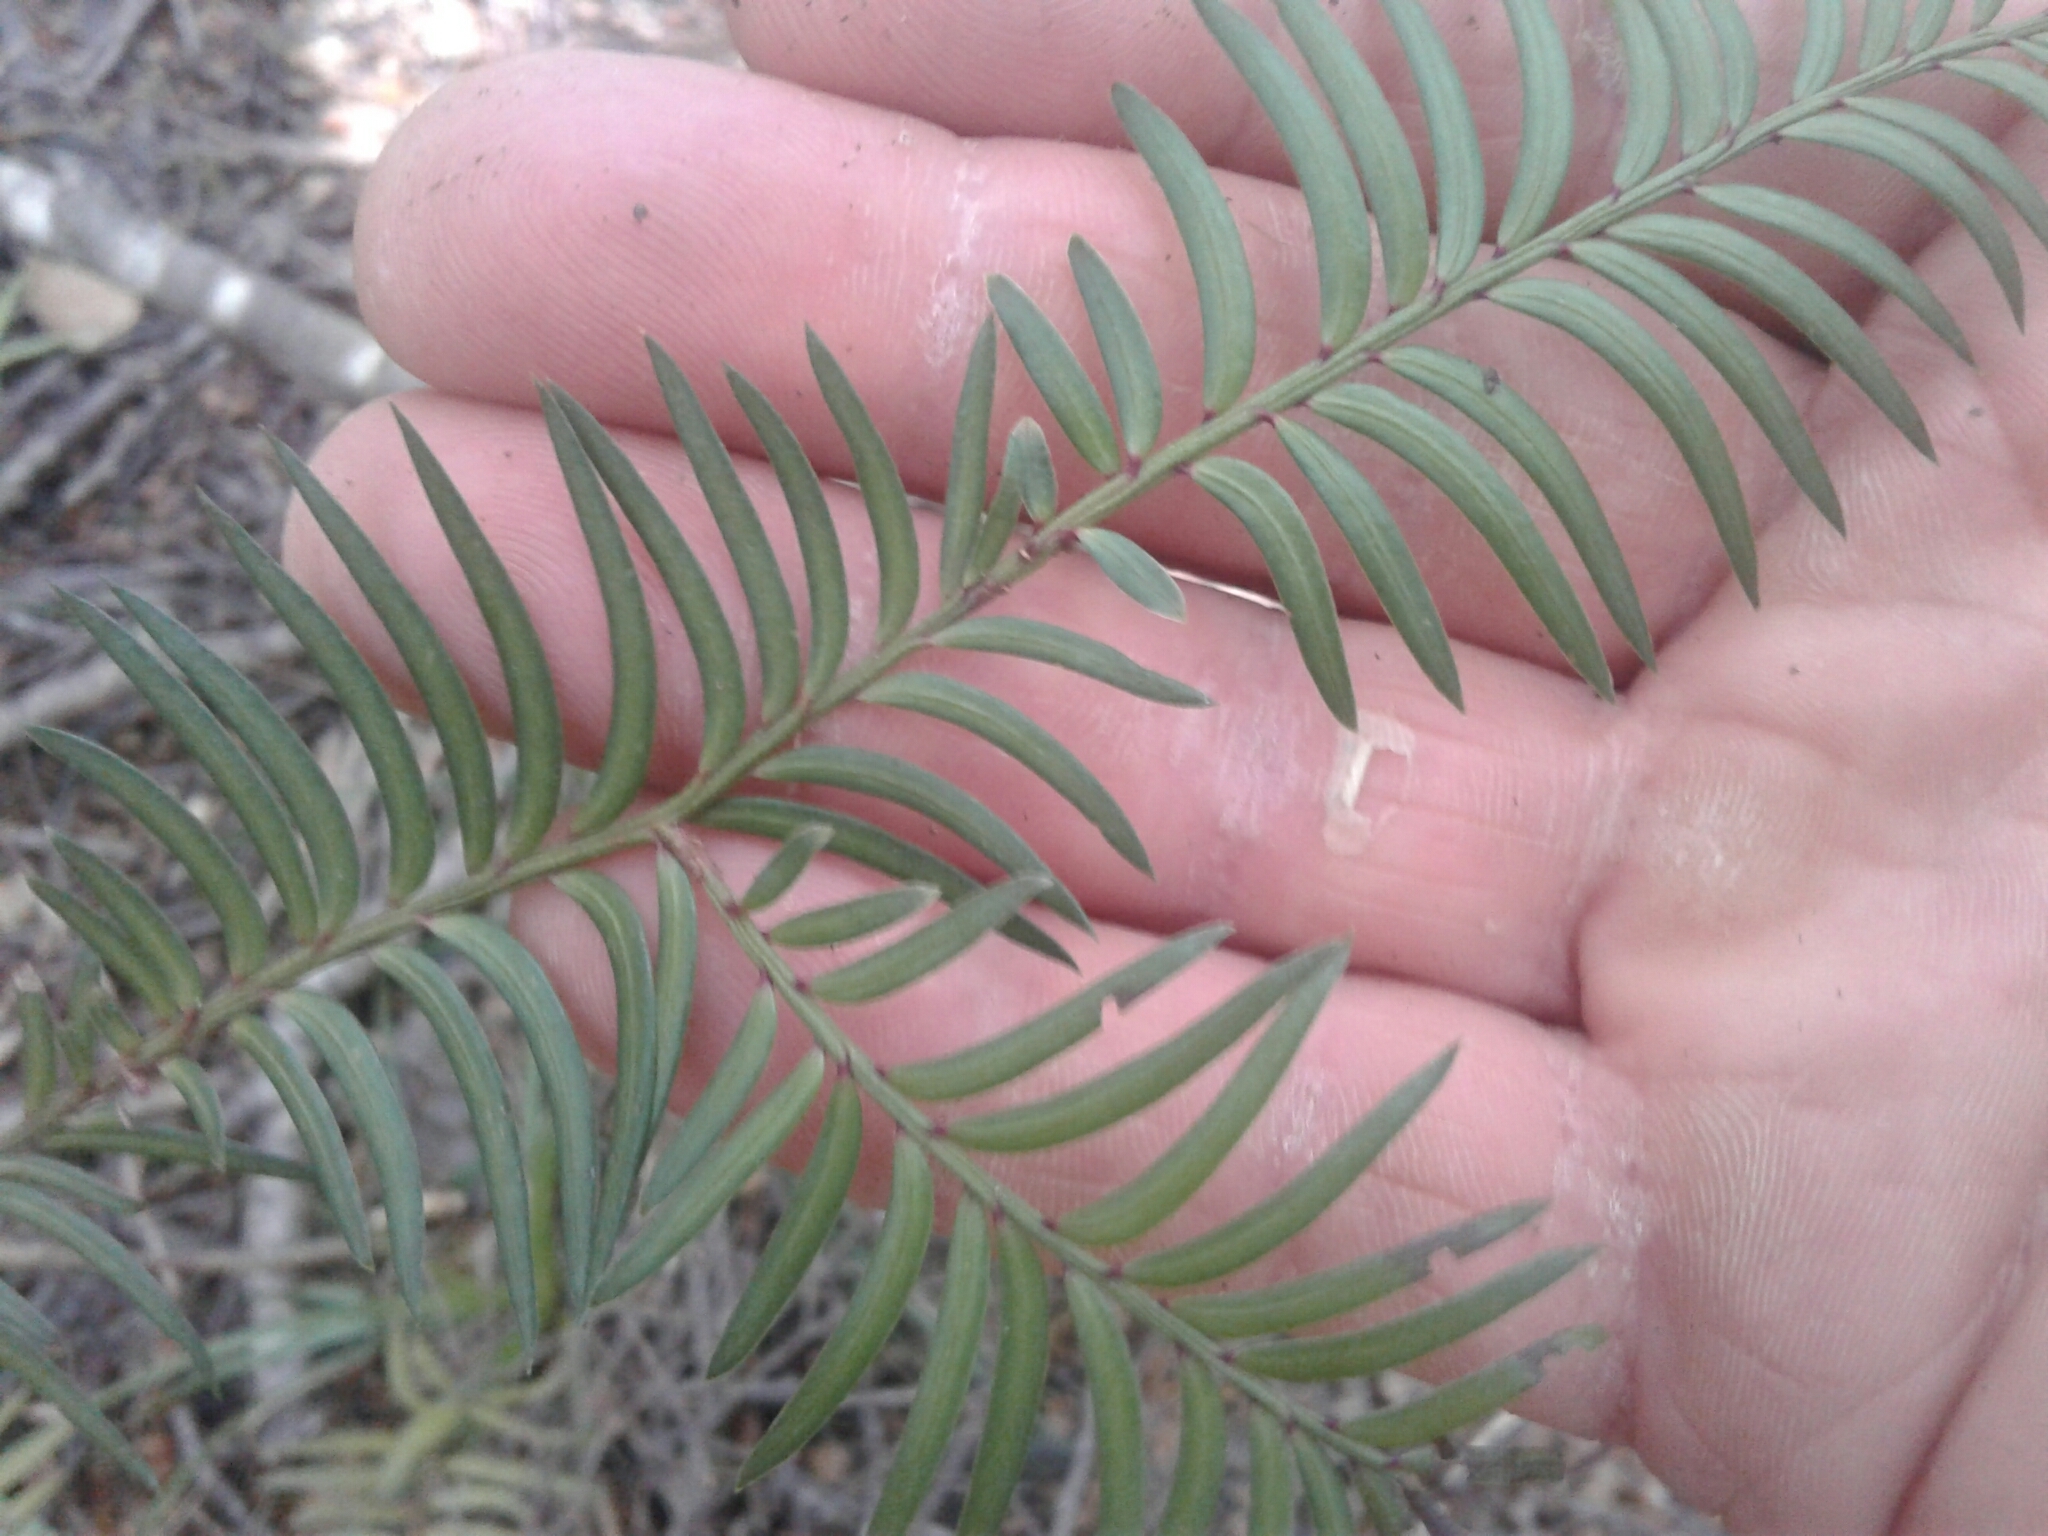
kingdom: Plantae
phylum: Tracheophyta
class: Pinopsida
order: Pinales
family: Podocarpaceae
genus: Prumnopitys
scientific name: Prumnopitys ferruginea
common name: Brown pine
